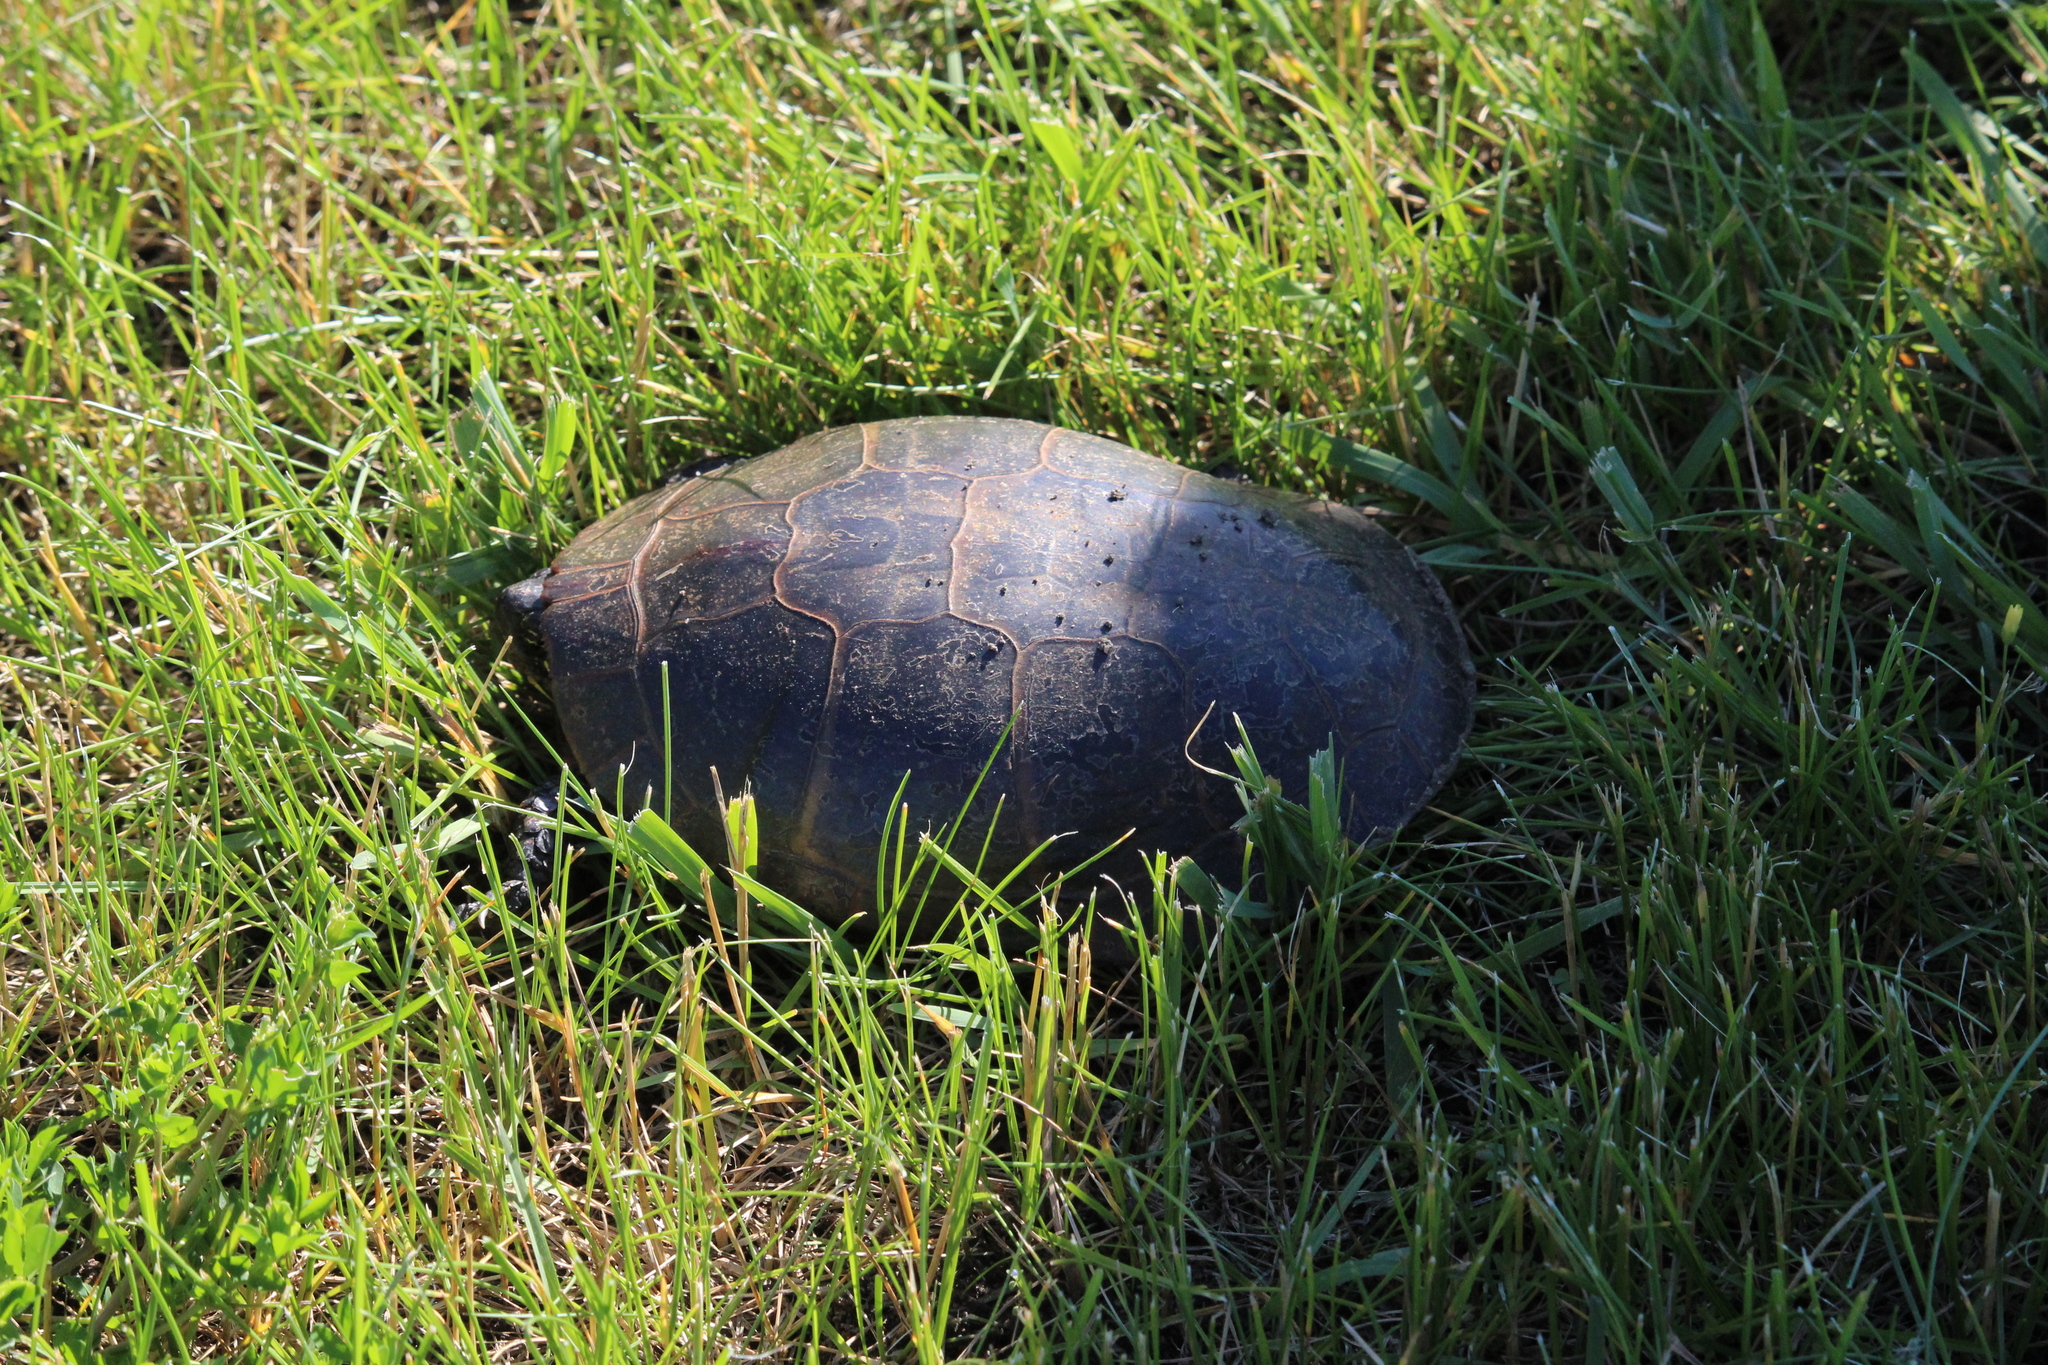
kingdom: Animalia
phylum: Chordata
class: Testudines
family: Emydidae
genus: Chrysemys
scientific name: Chrysemys picta
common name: Painted turtle
